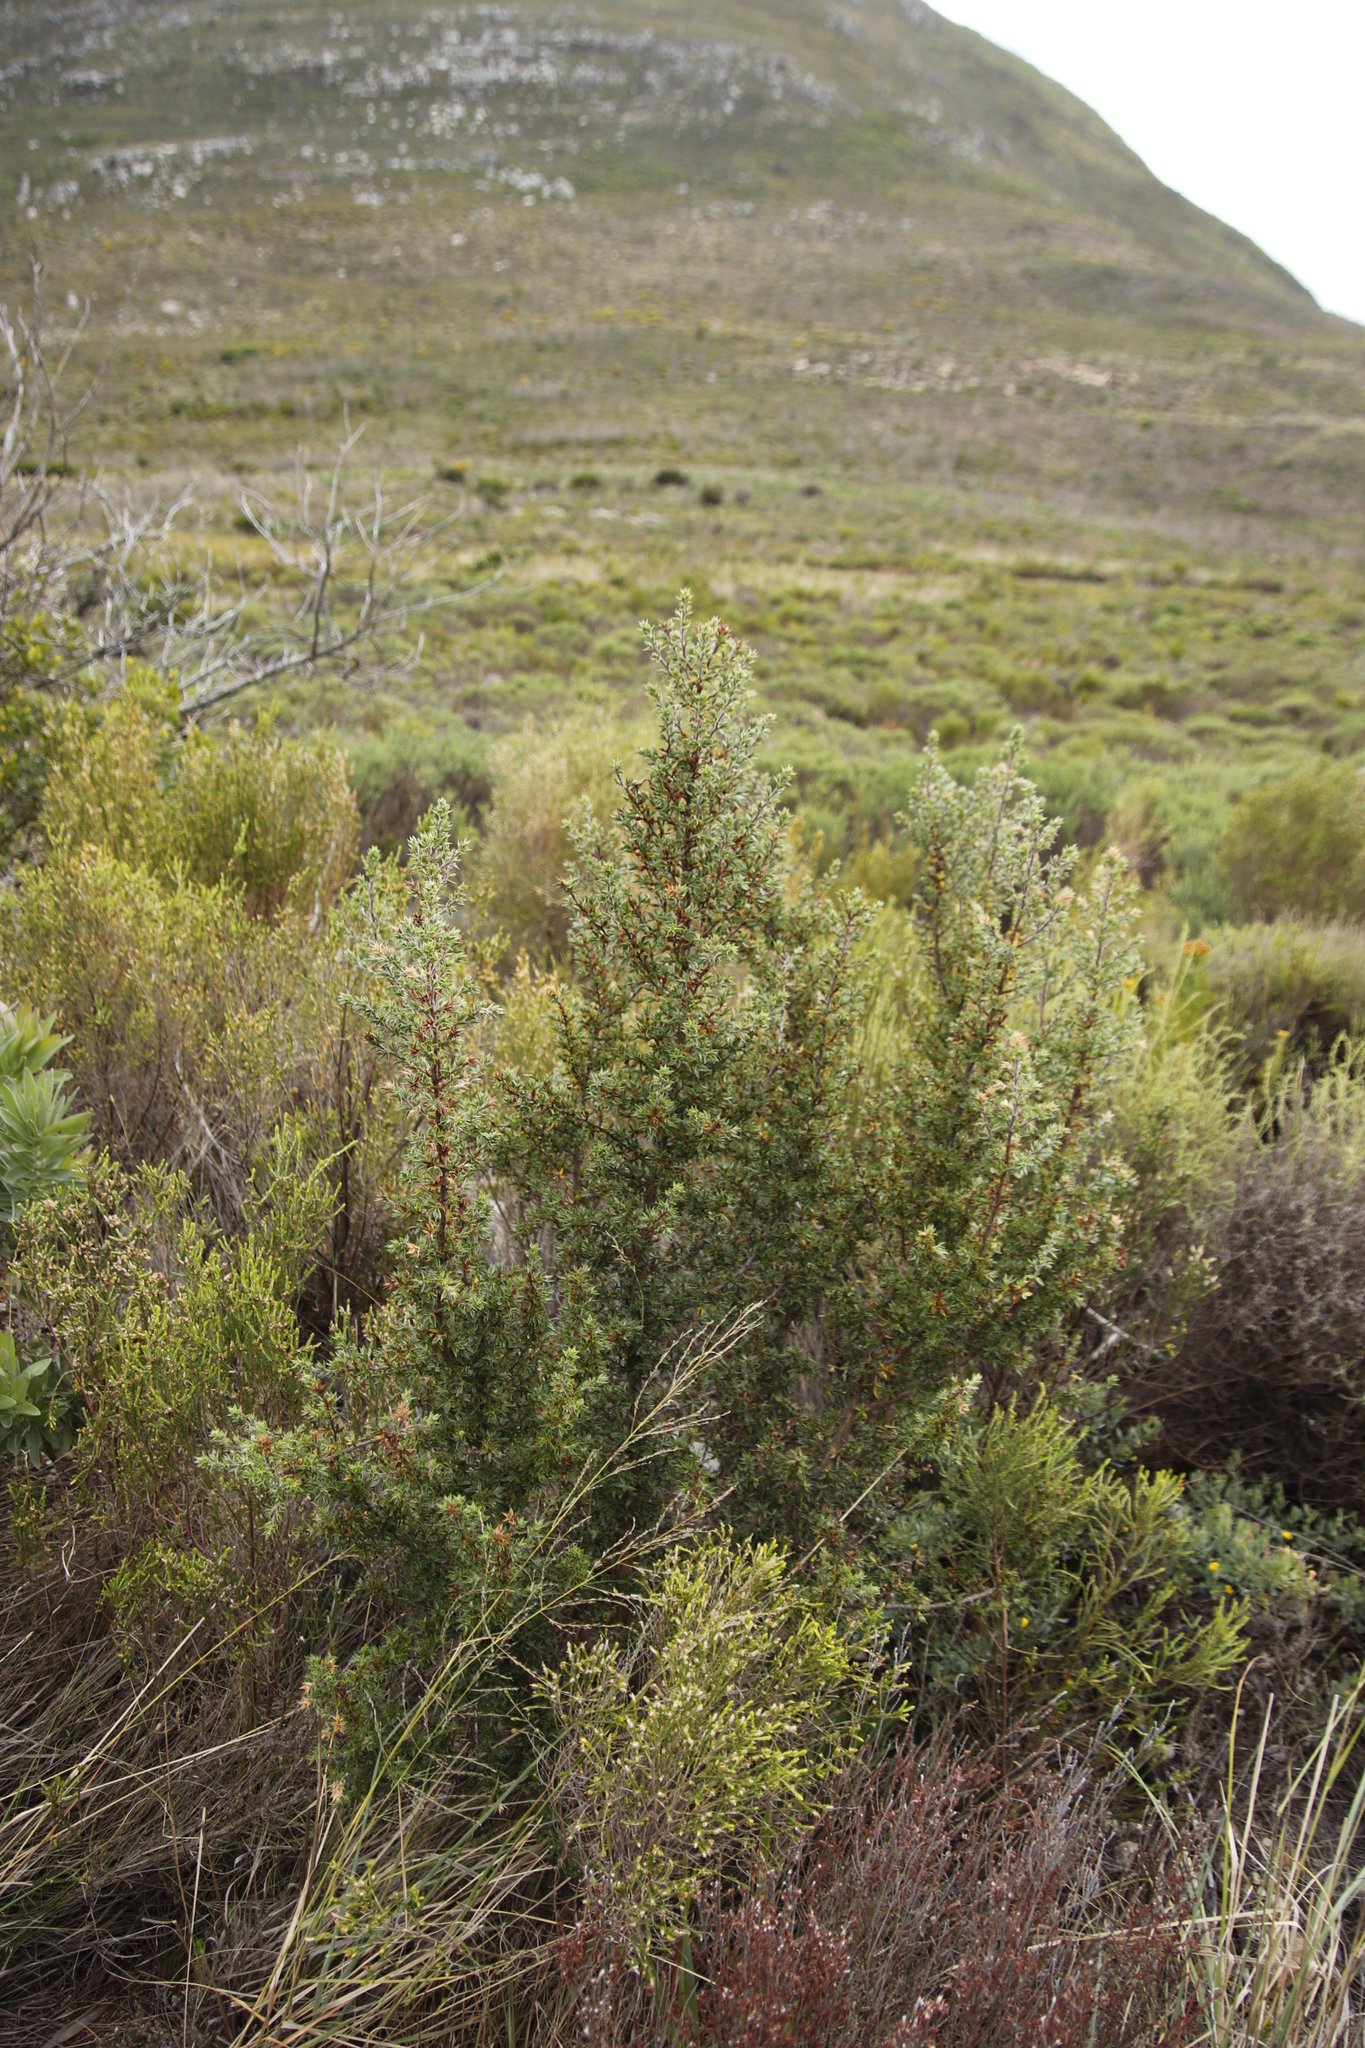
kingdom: Plantae
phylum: Tracheophyta
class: Magnoliopsida
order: Rosales
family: Rosaceae
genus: Cliffortia
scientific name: Cliffortia ruscifolia
